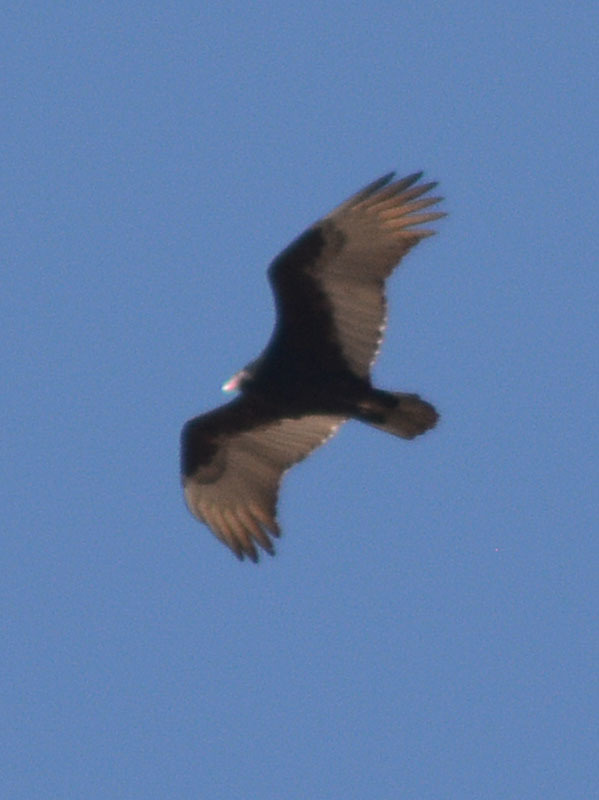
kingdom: Animalia
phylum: Chordata
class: Aves
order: Accipitriformes
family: Cathartidae
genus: Cathartes
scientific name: Cathartes aura
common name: Turkey vulture
